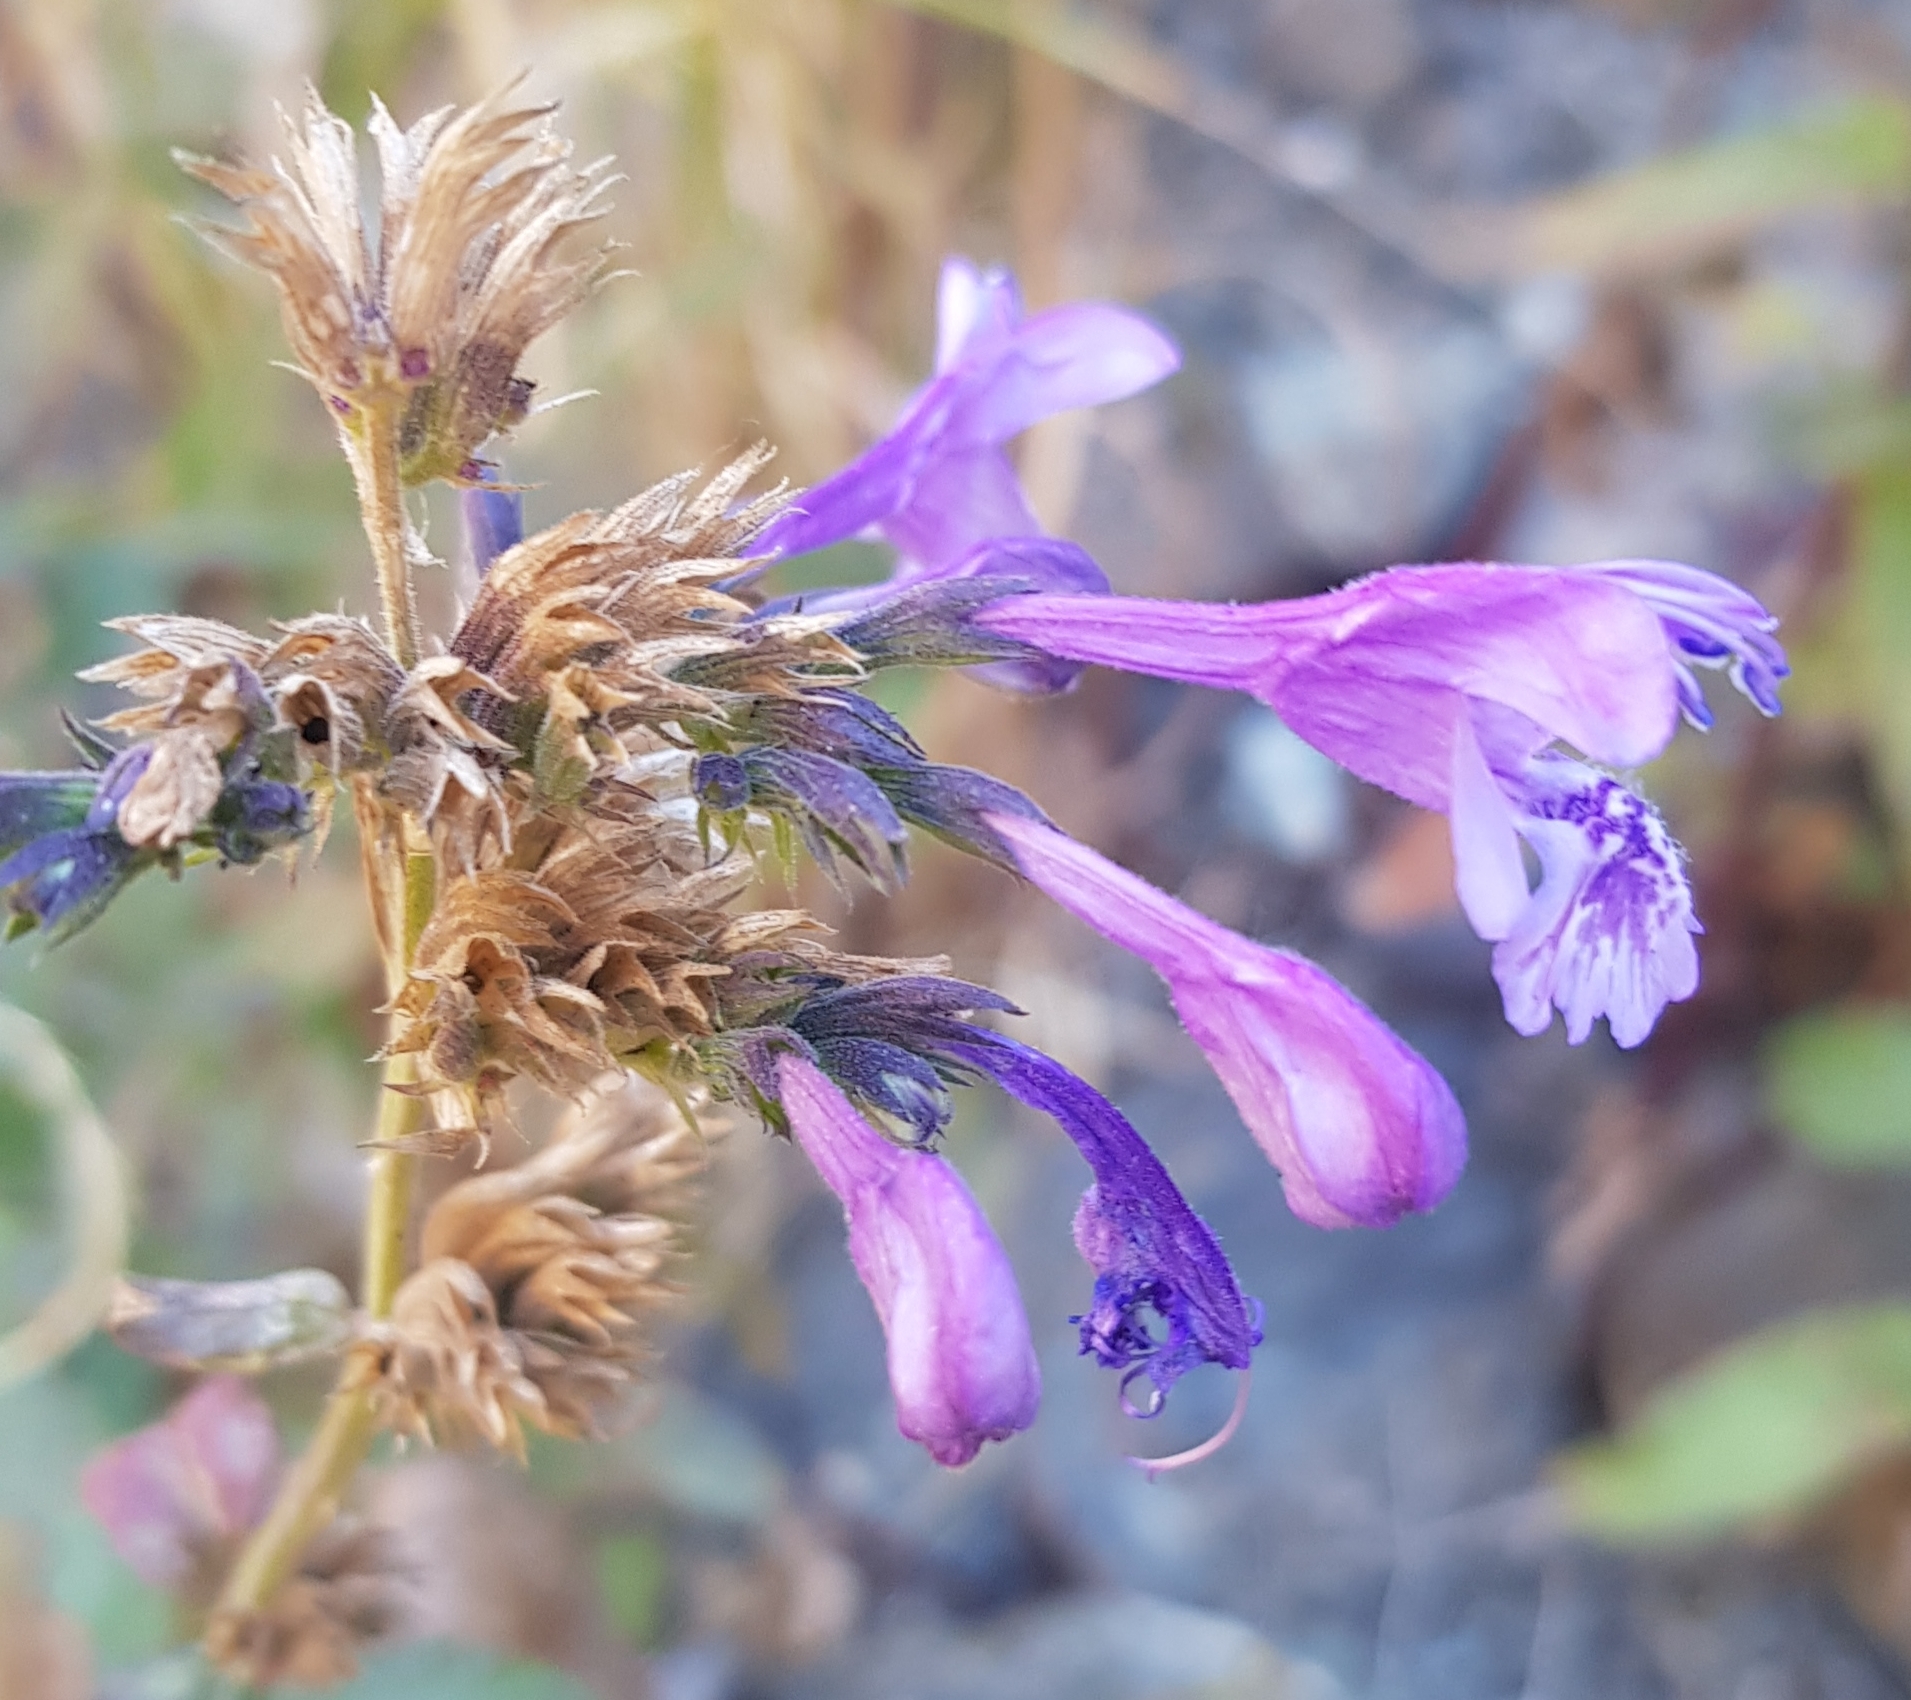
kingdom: Plantae
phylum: Tracheophyta
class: Magnoliopsida
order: Lamiales
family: Lamiaceae
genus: Nepeta
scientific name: Nepeta sibirica
